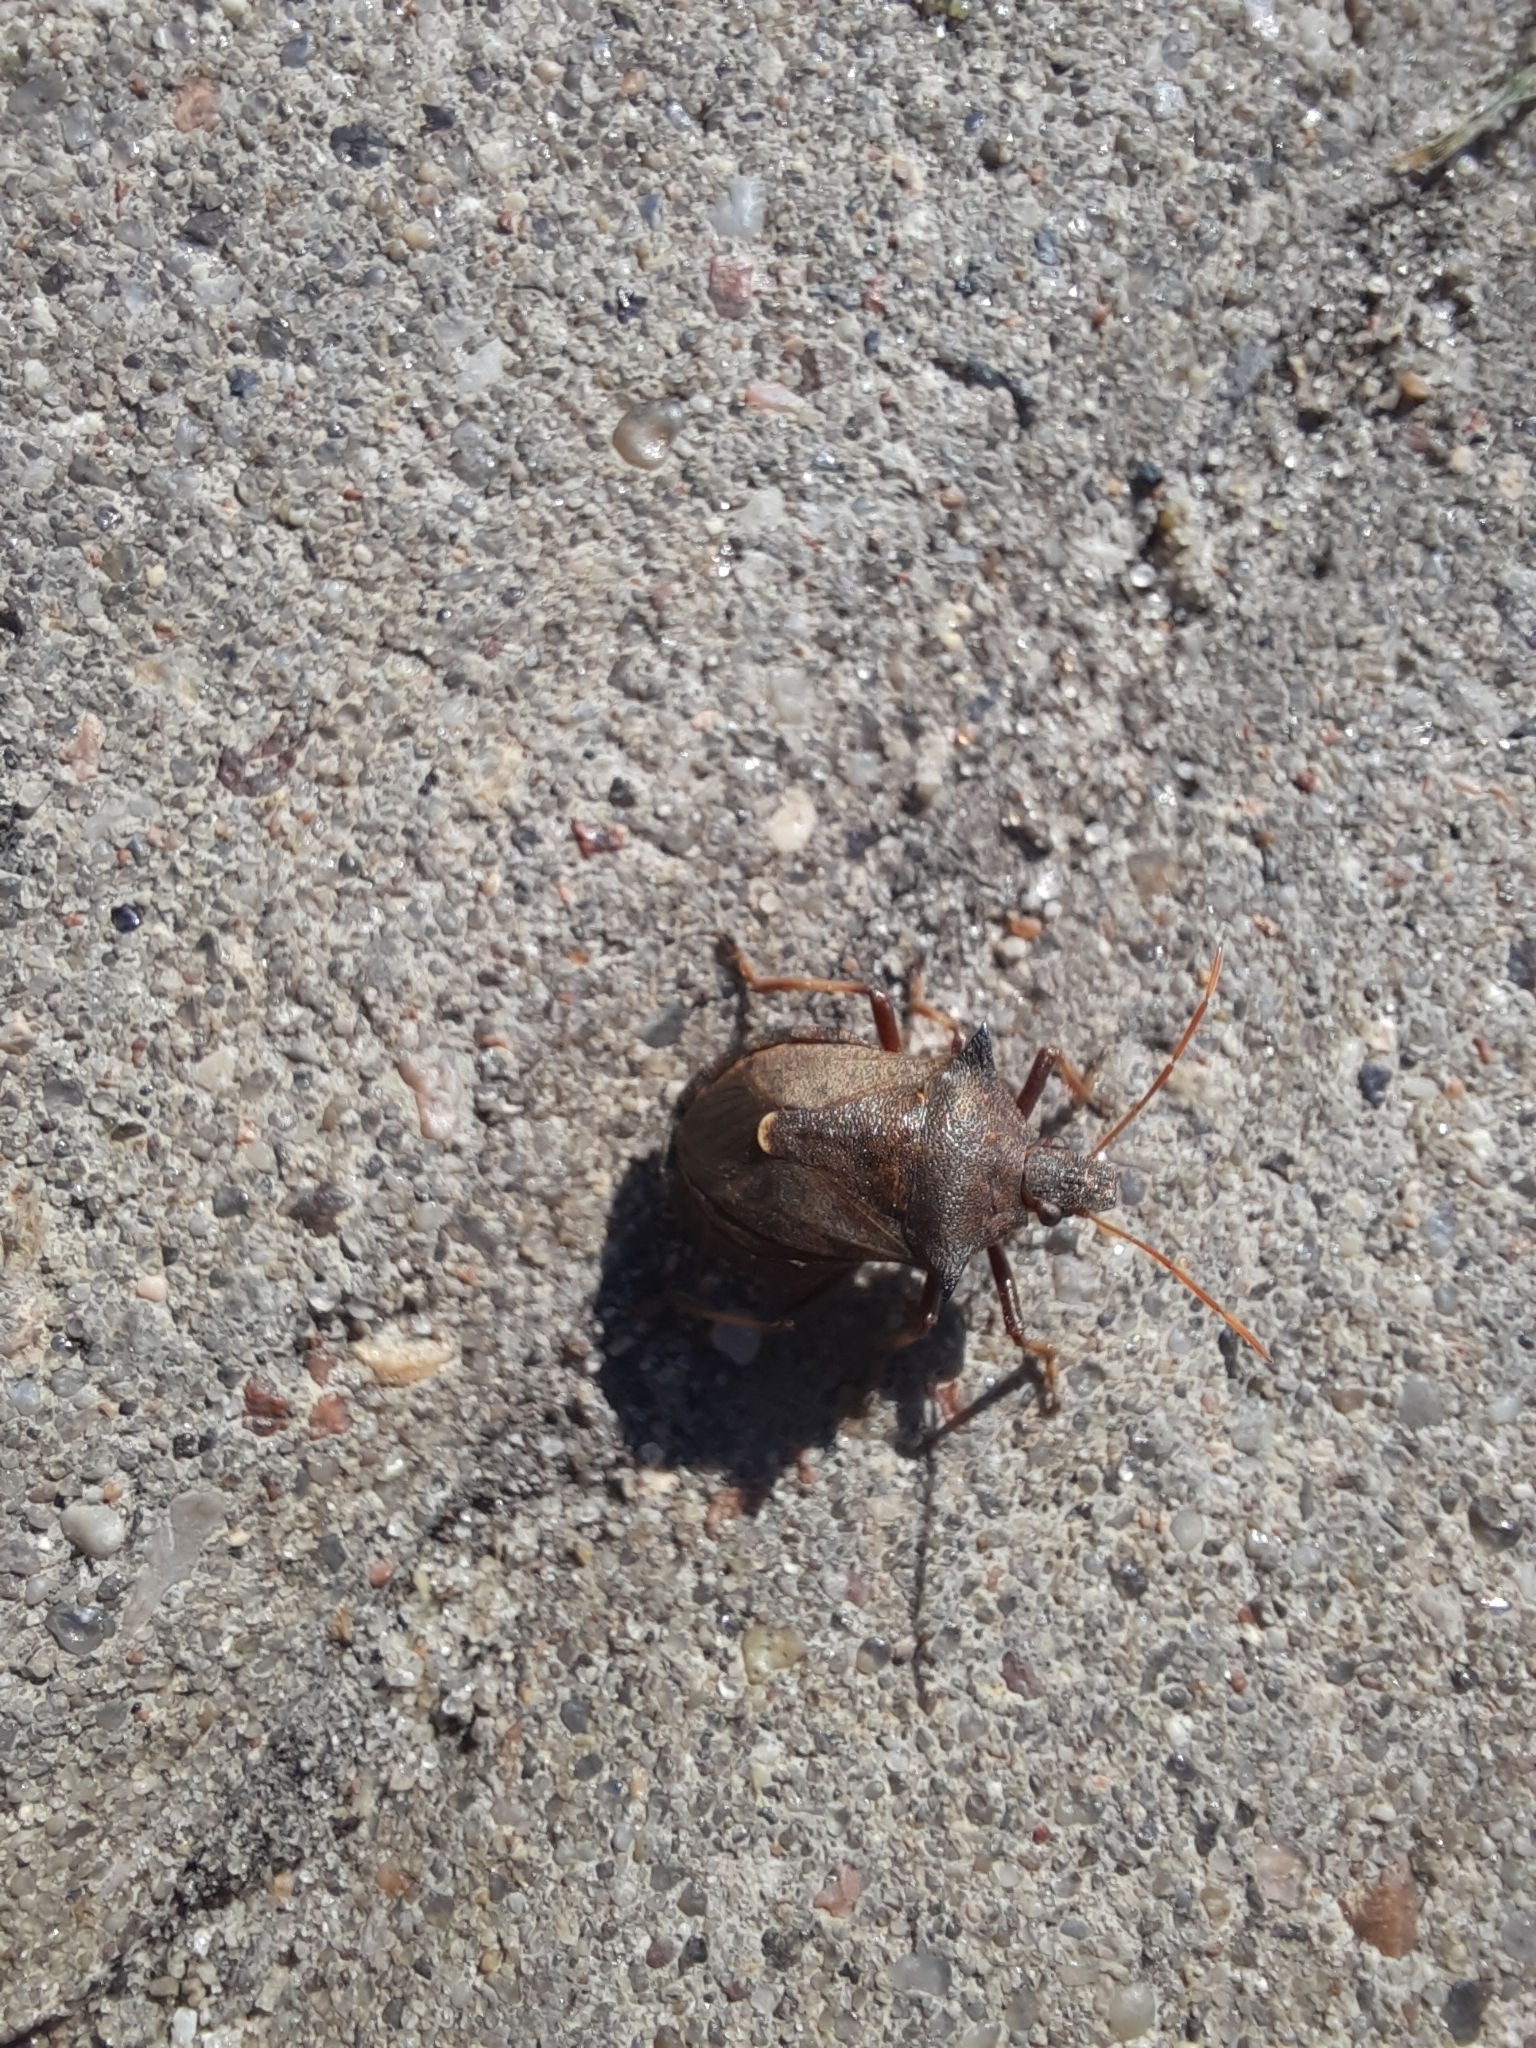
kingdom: Animalia
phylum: Arthropoda
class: Insecta
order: Hemiptera
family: Pentatomidae
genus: Picromerus
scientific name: Picromerus bidens
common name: Spiked shieldbug
